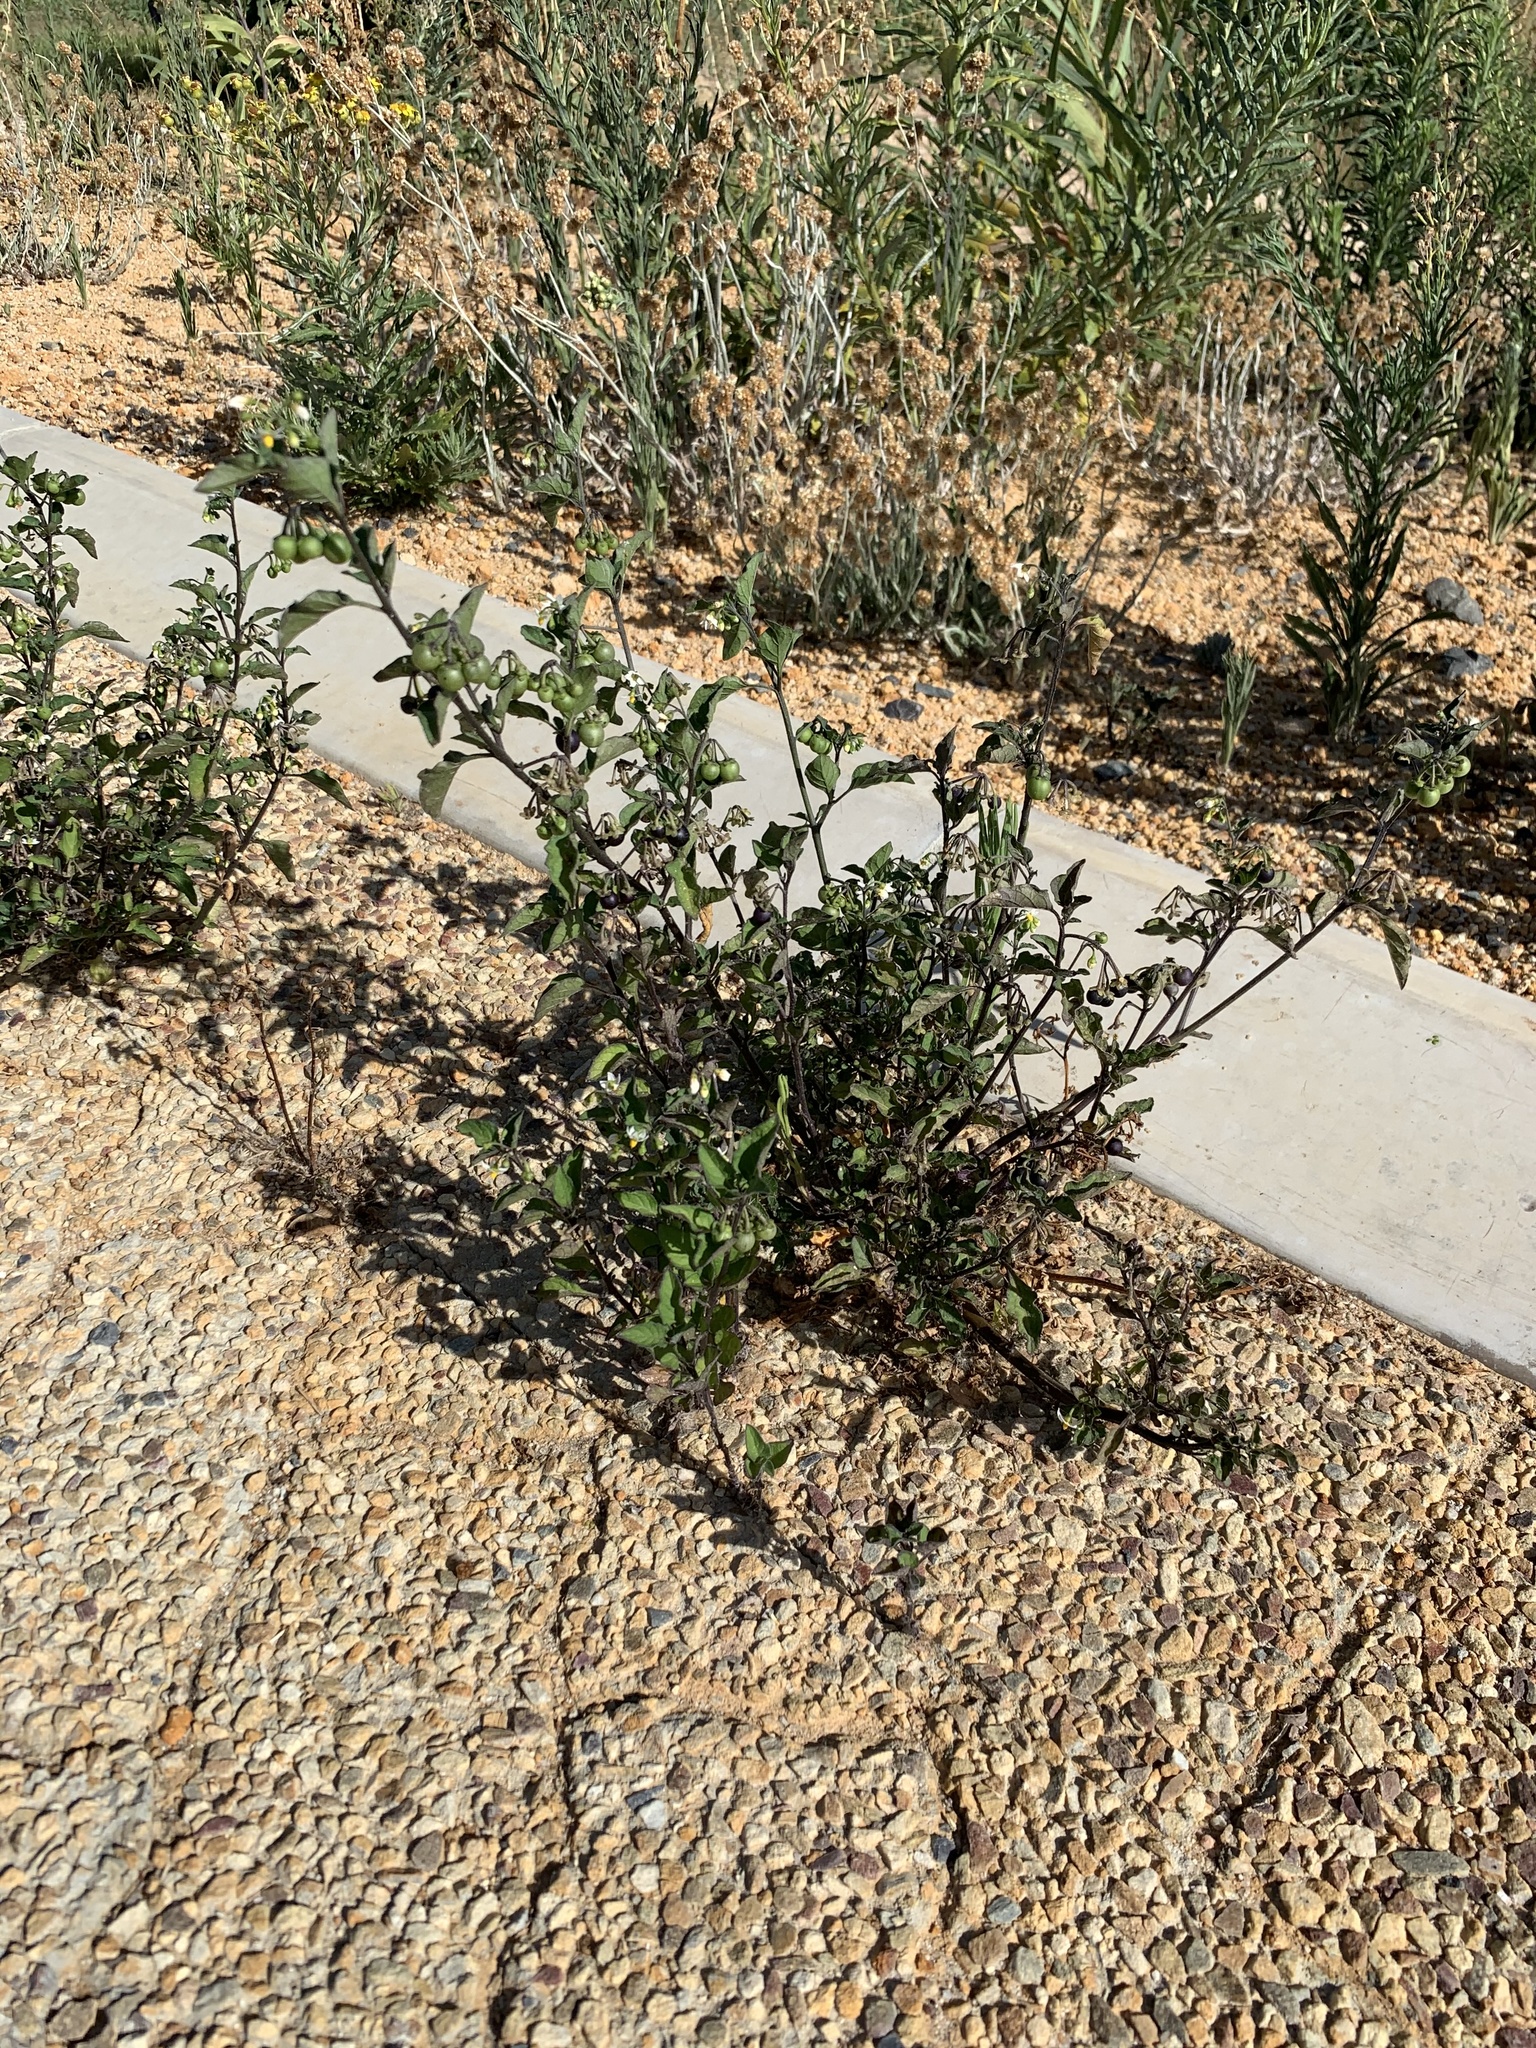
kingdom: Plantae
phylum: Tracheophyta
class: Magnoliopsida
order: Solanales
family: Solanaceae
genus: Solanum
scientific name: Solanum nigrum
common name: Black nightshade
